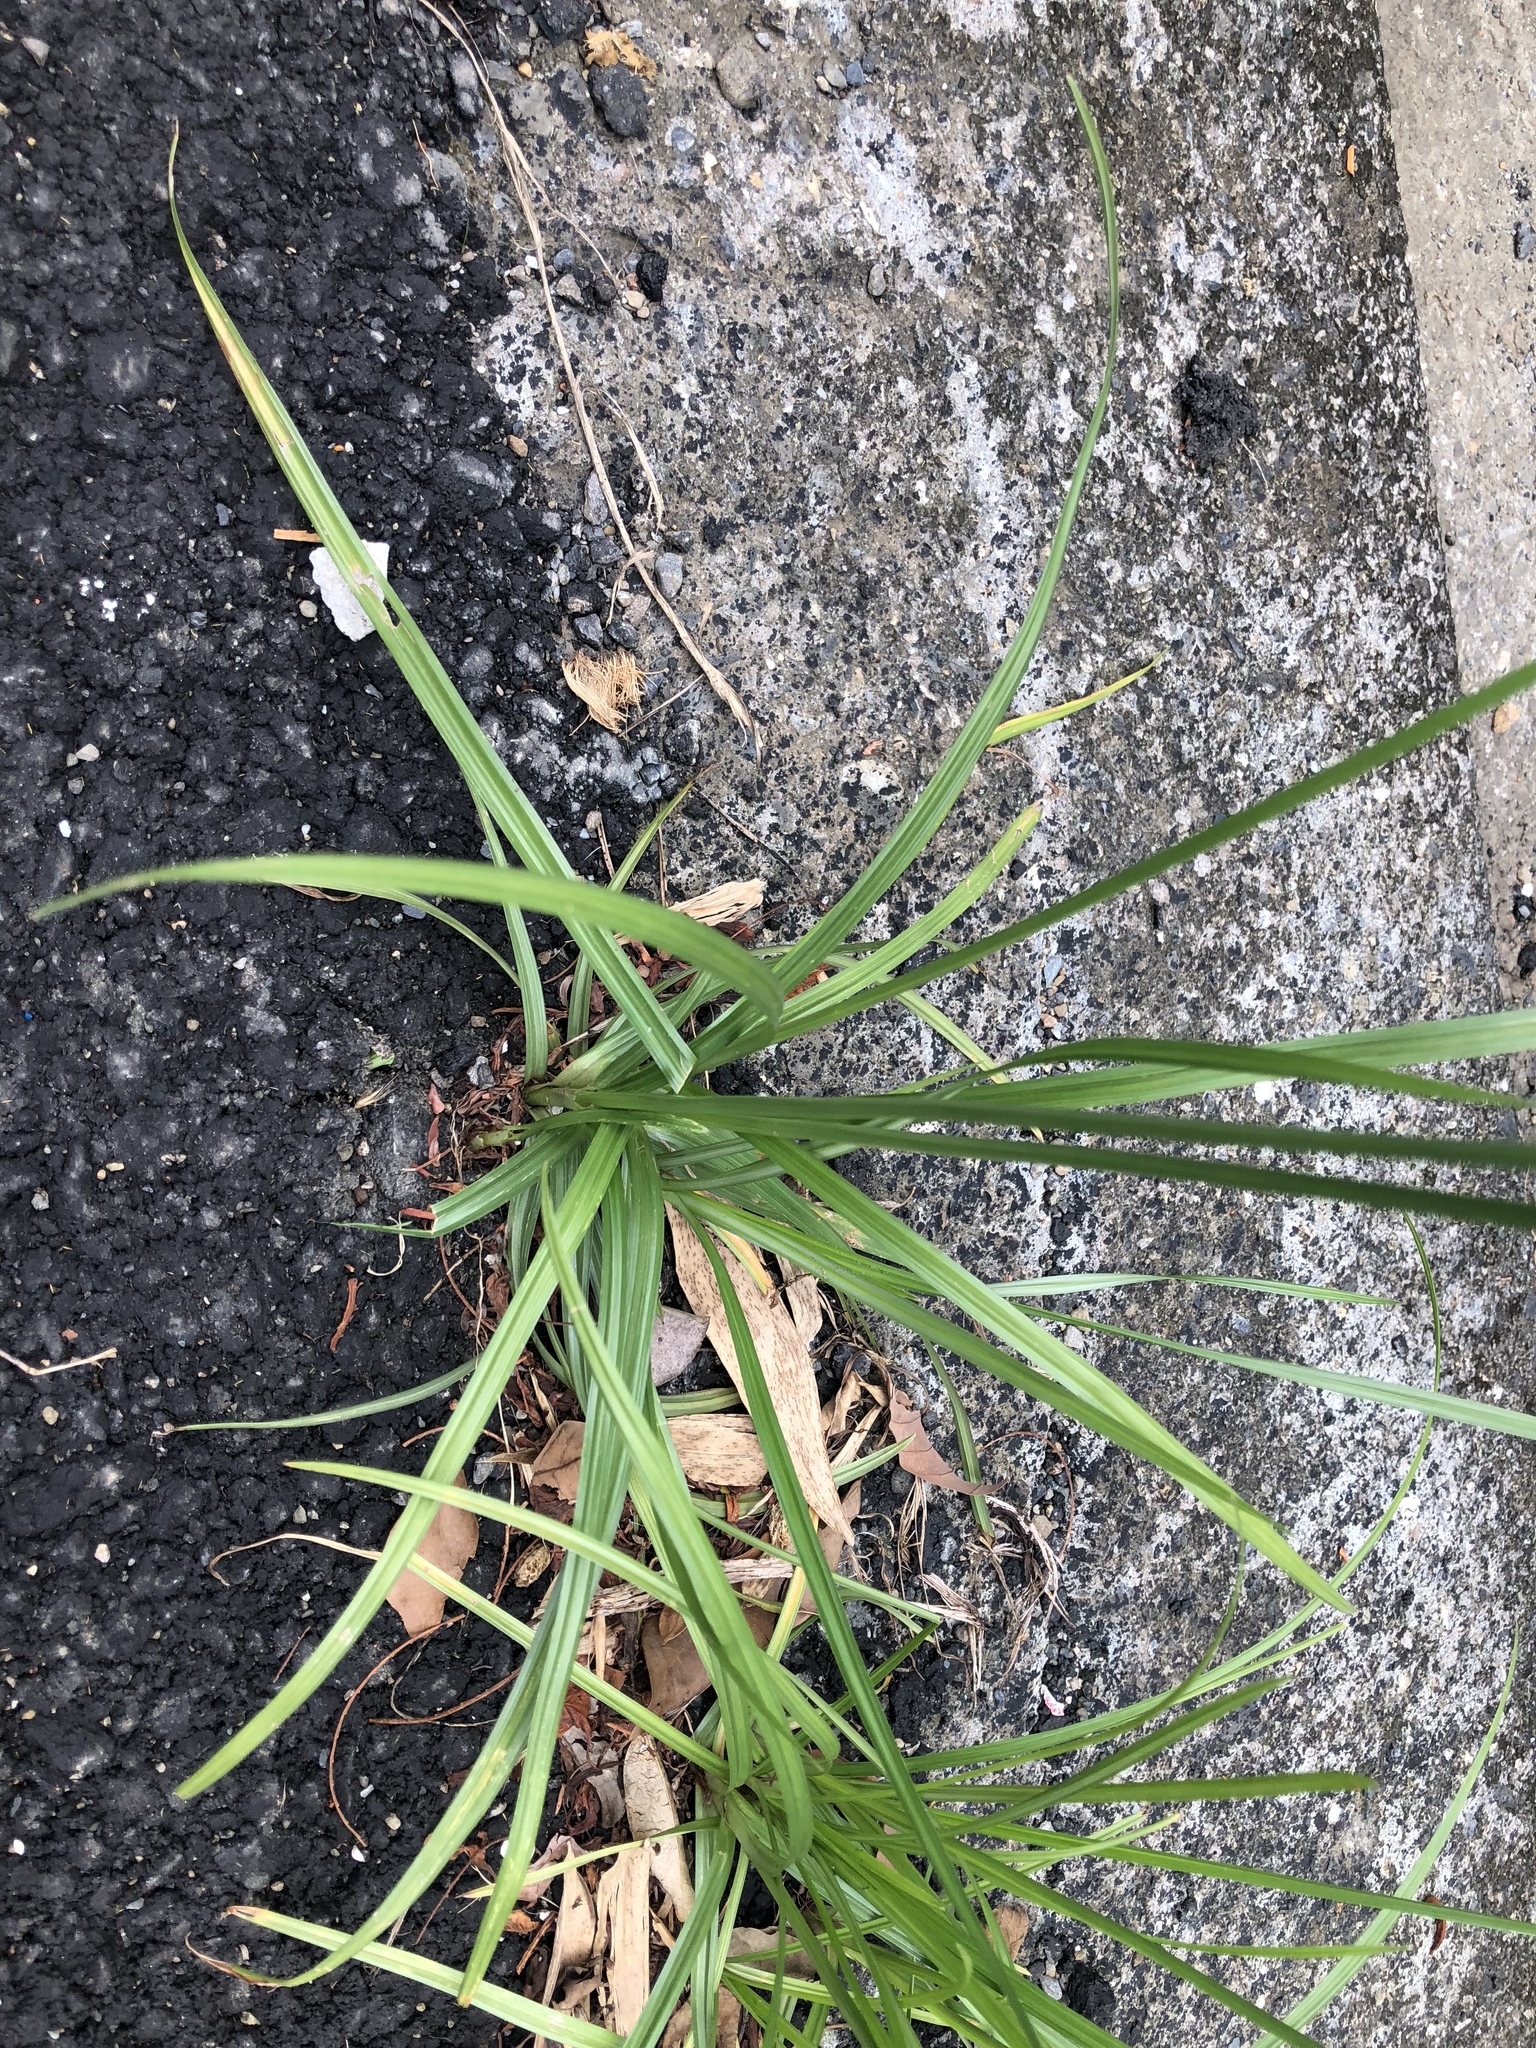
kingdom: Plantae
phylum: Tracheophyta
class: Liliopsida
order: Poales
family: Cyperaceae
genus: Cyperus
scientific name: Cyperus rotundus
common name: Nutgrass
